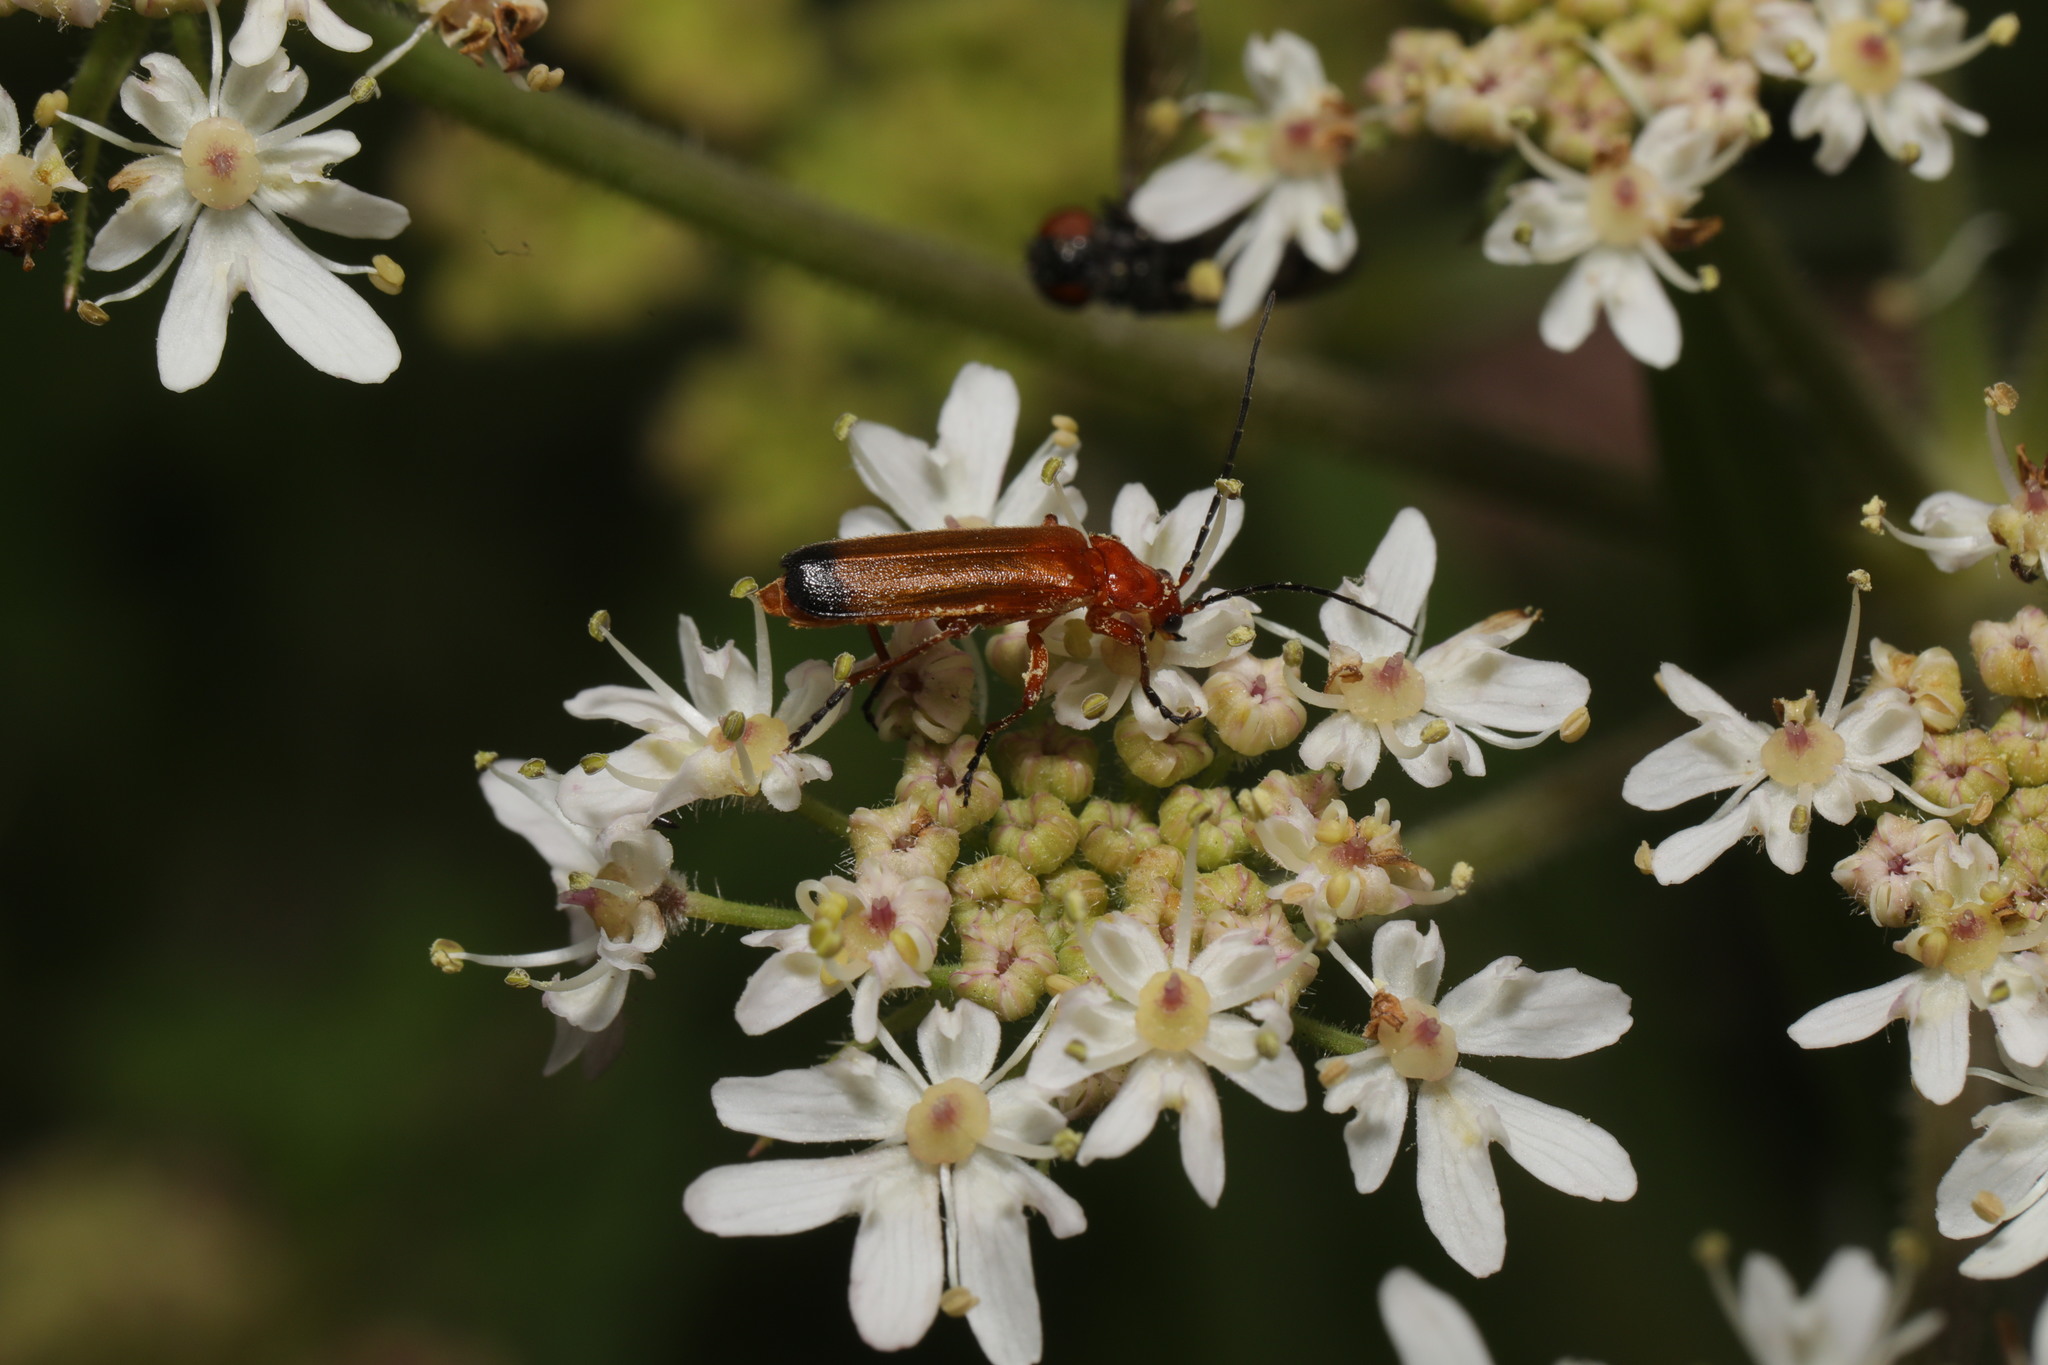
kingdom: Animalia
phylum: Arthropoda
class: Insecta
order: Coleoptera
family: Cantharidae
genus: Rhagonycha
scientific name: Rhagonycha fulva
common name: Common red soldier beetle
